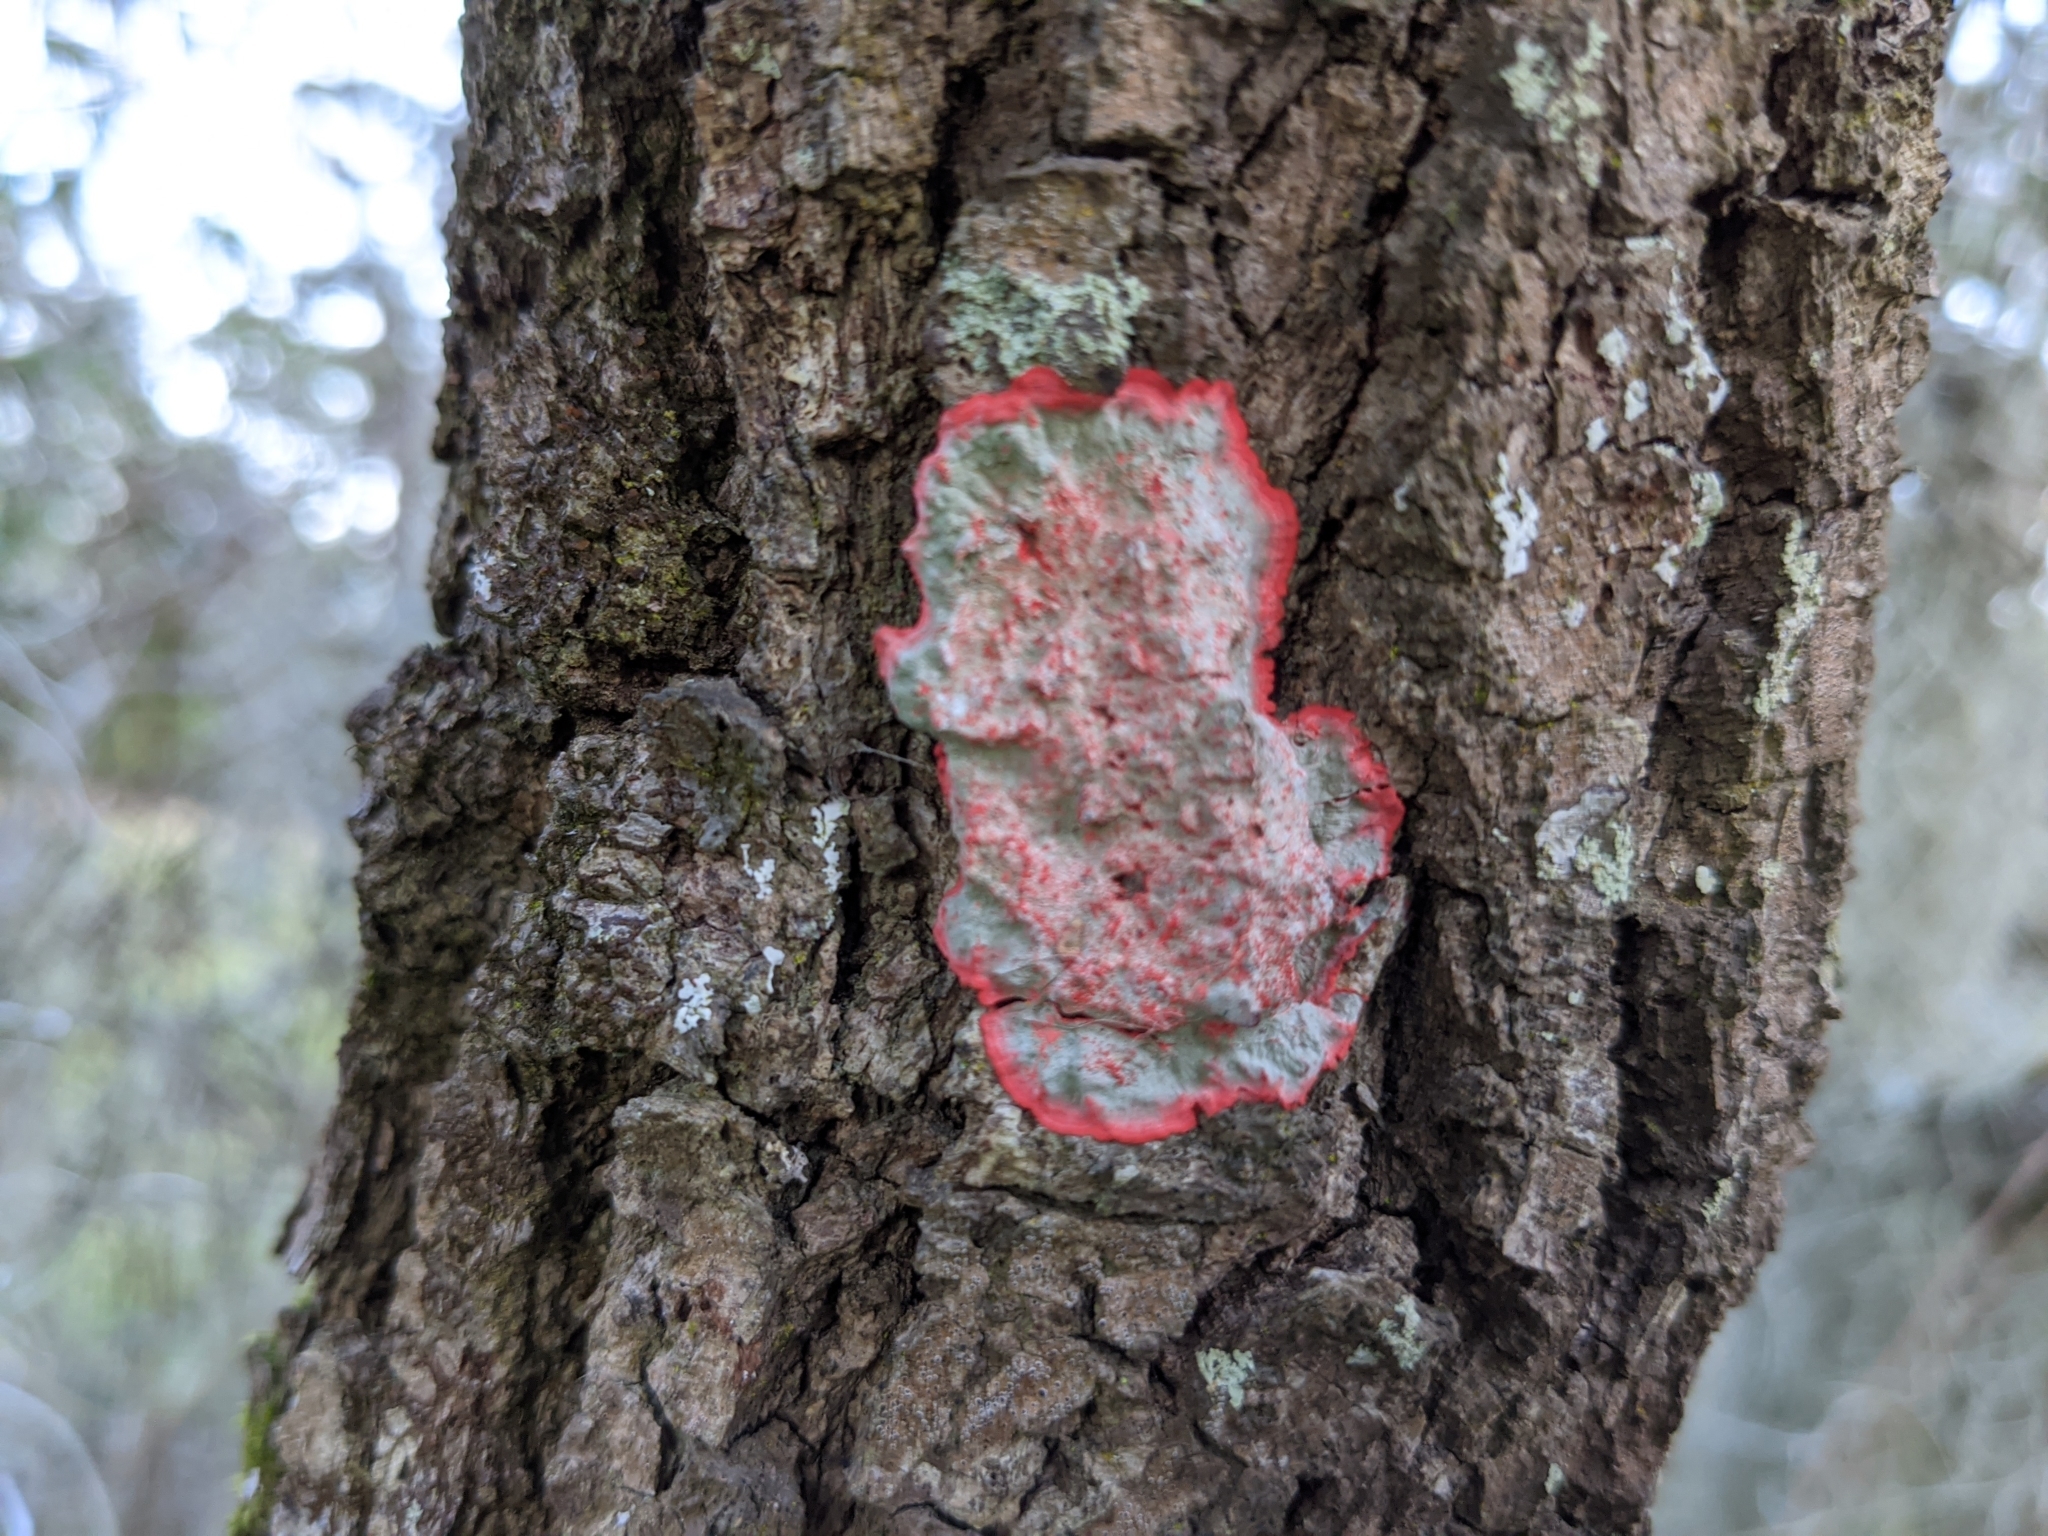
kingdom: Fungi
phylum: Ascomycota
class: Arthoniomycetes
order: Arthoniales
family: Arthoniaceae
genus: Herpothallon
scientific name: Herpothallon rubrocinctum
